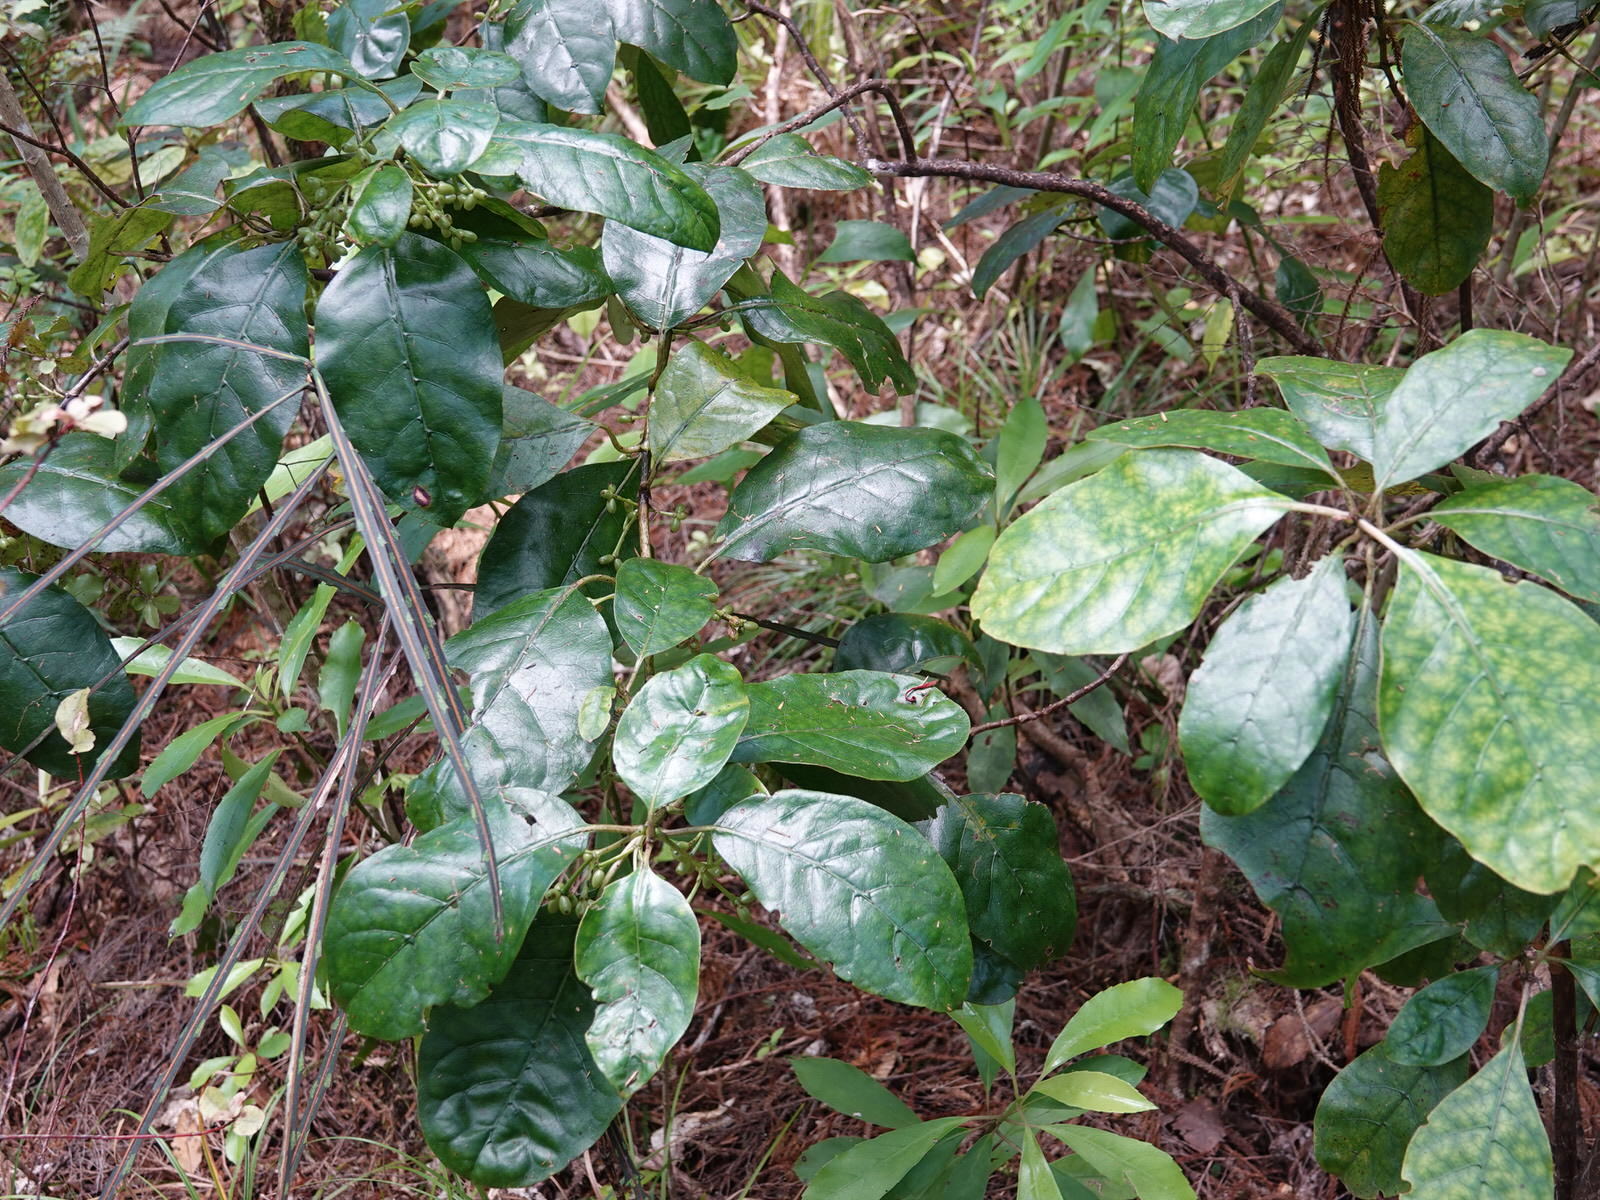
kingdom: Plantae
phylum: Tracheophyta
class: Magnoliopsida
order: Gentianales
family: Rubiaceae
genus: Coprosma
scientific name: Coprosma autumnalis
